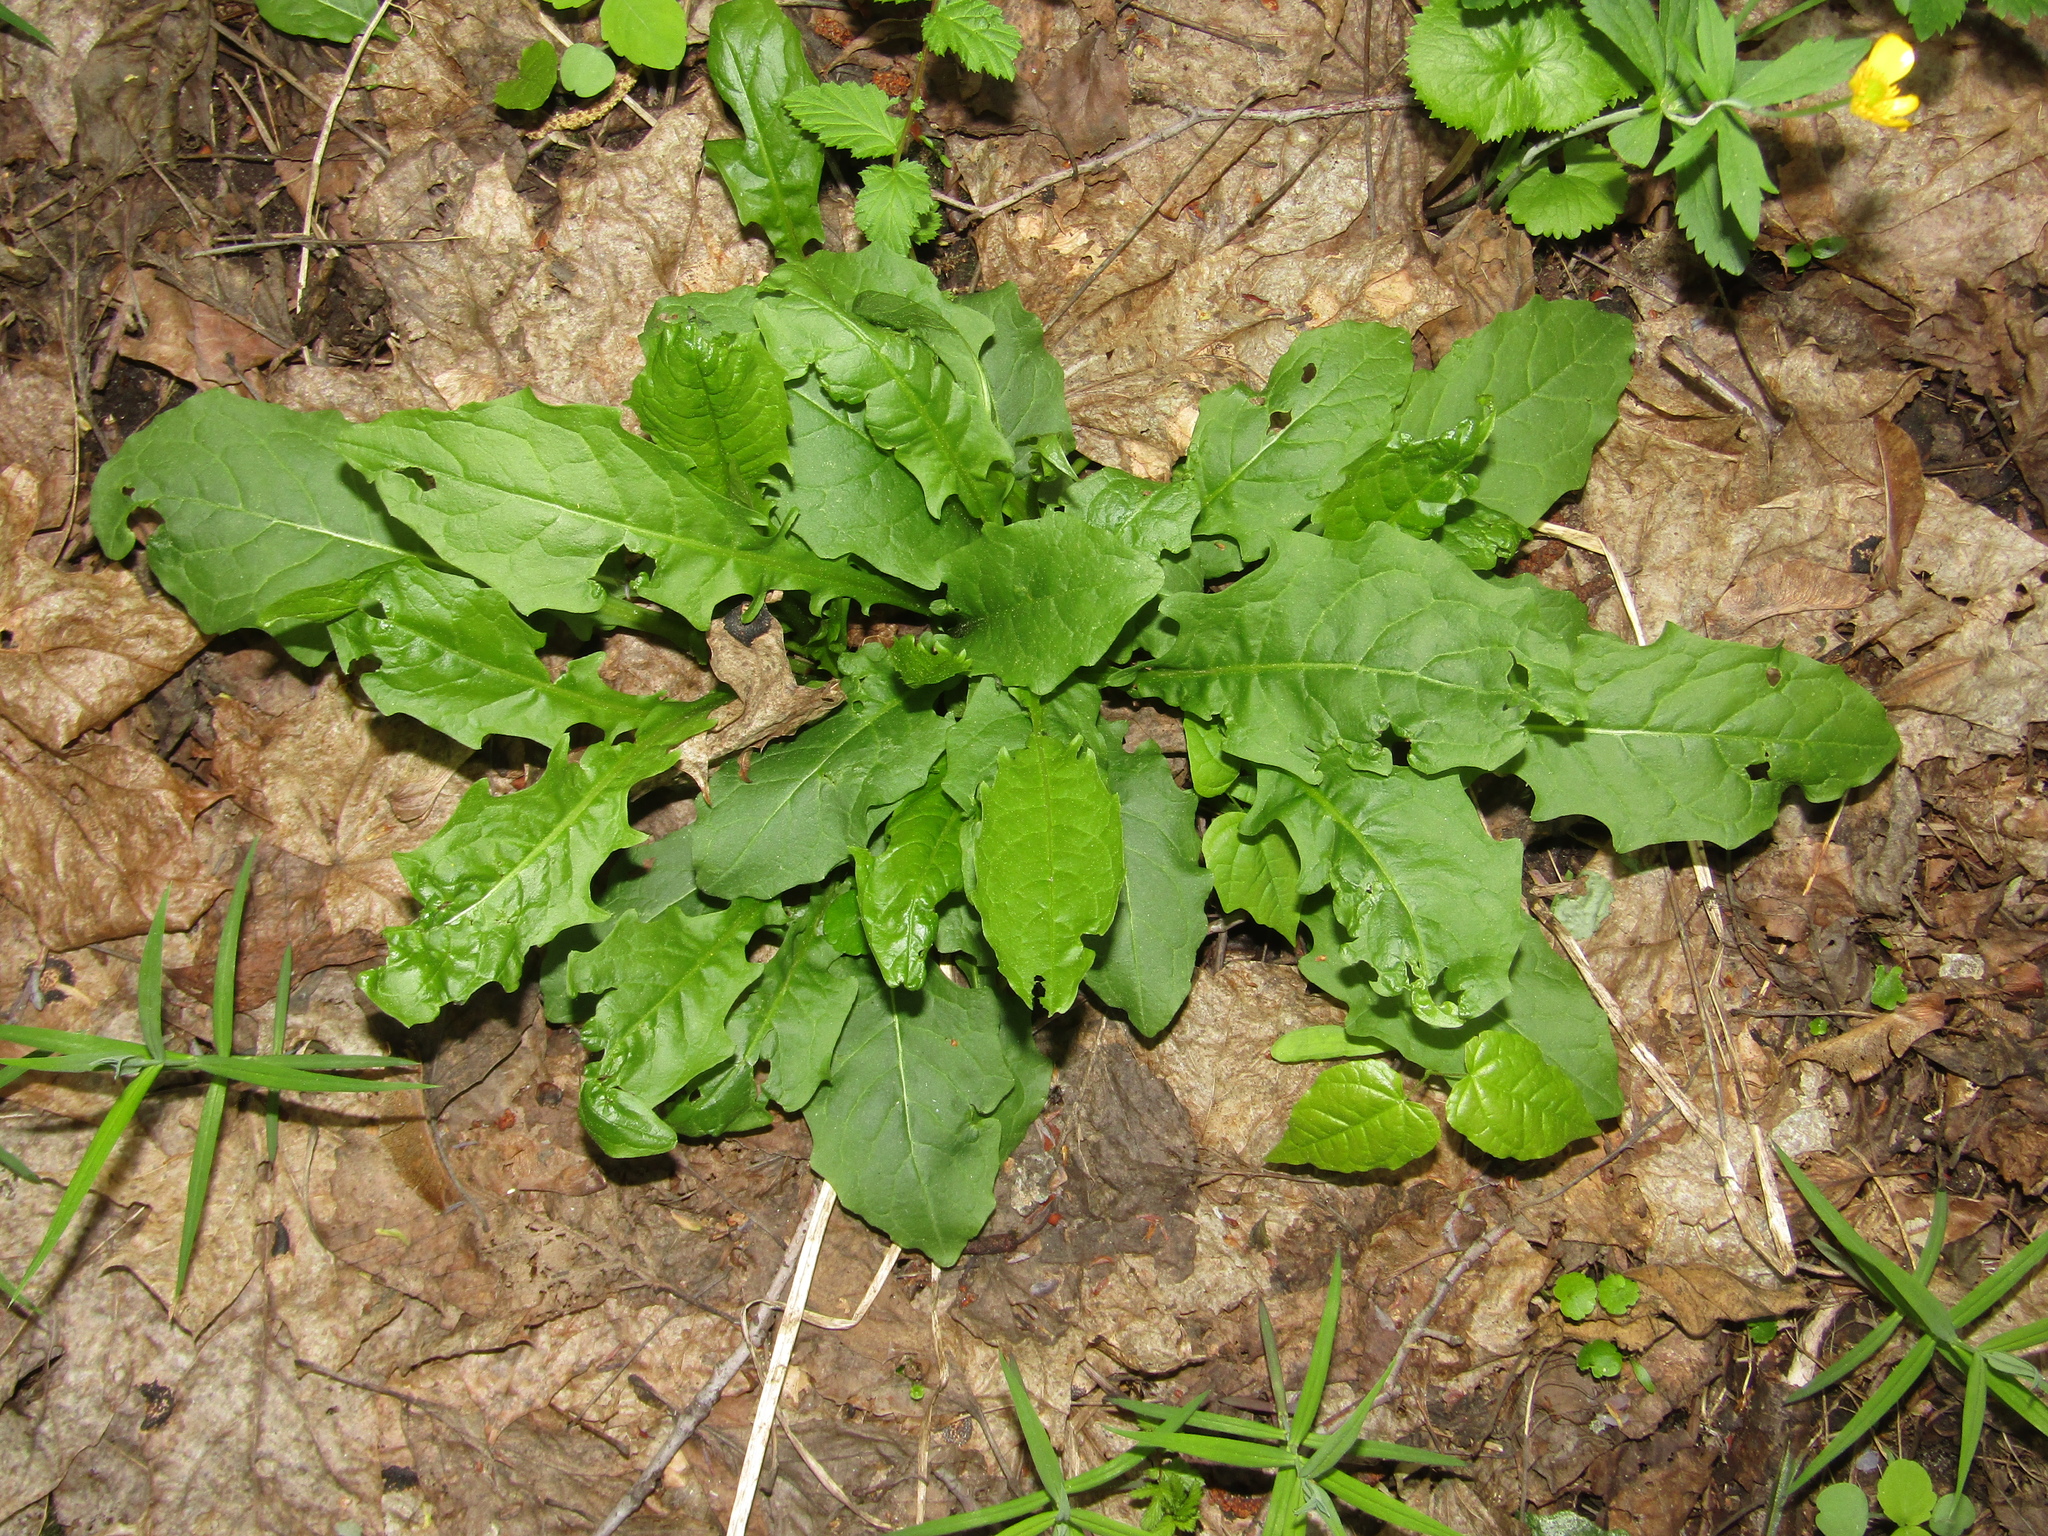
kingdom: Plantae
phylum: Tracheophyta
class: Magnoliopsida
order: Asterales
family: Asteraceae
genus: Crepis
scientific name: Crepis paludosa
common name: Marsh hawk's-beard
